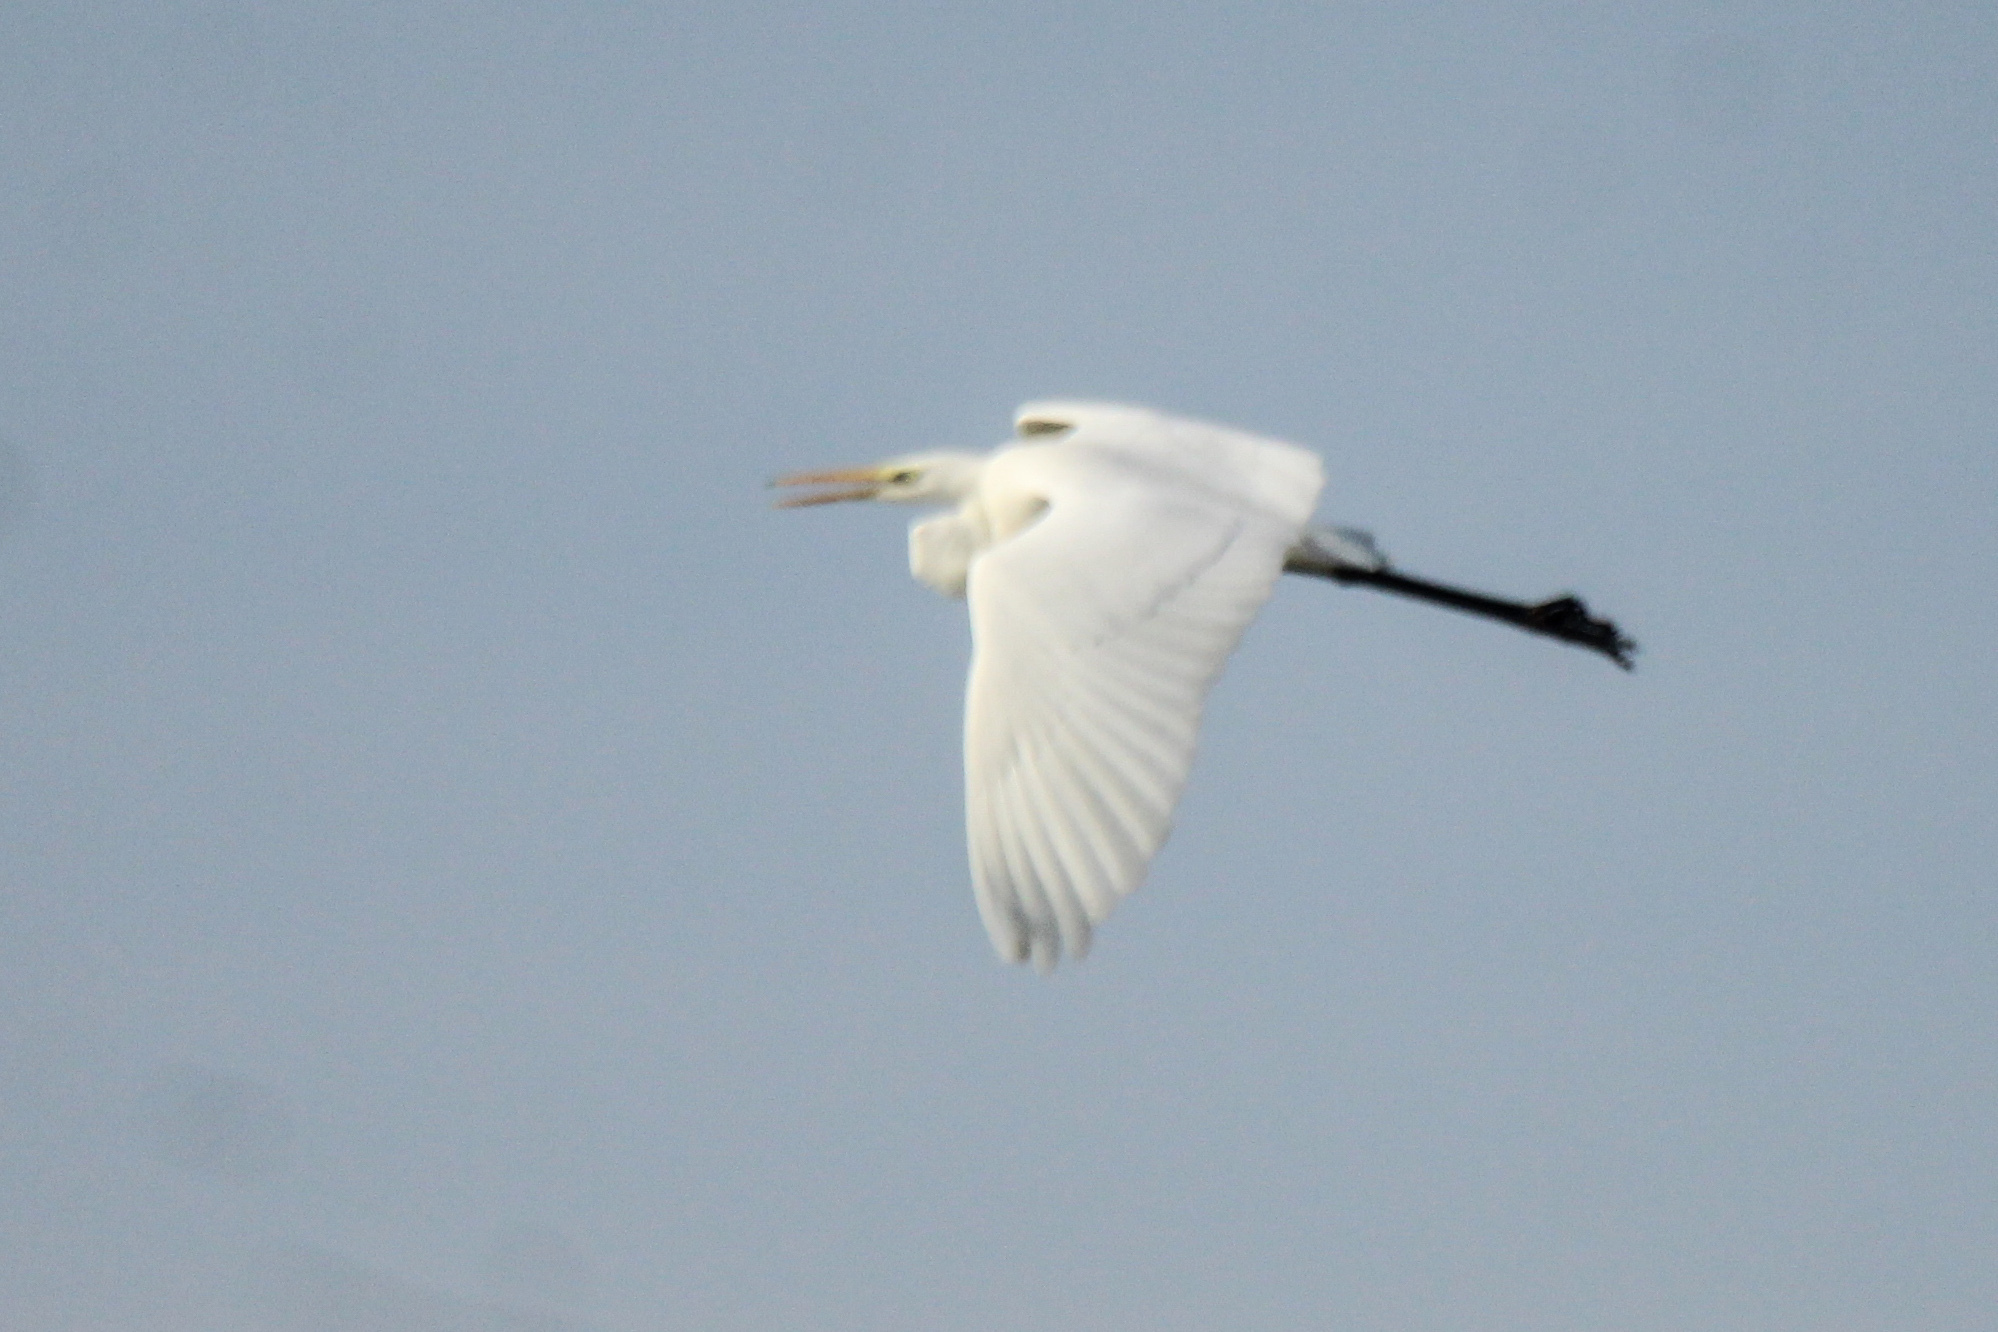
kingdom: Animalia
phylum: Chordata
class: Aves
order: Pelecaniformes
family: Ardeidae
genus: Ardea
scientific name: Ardea alba
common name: Great egret
